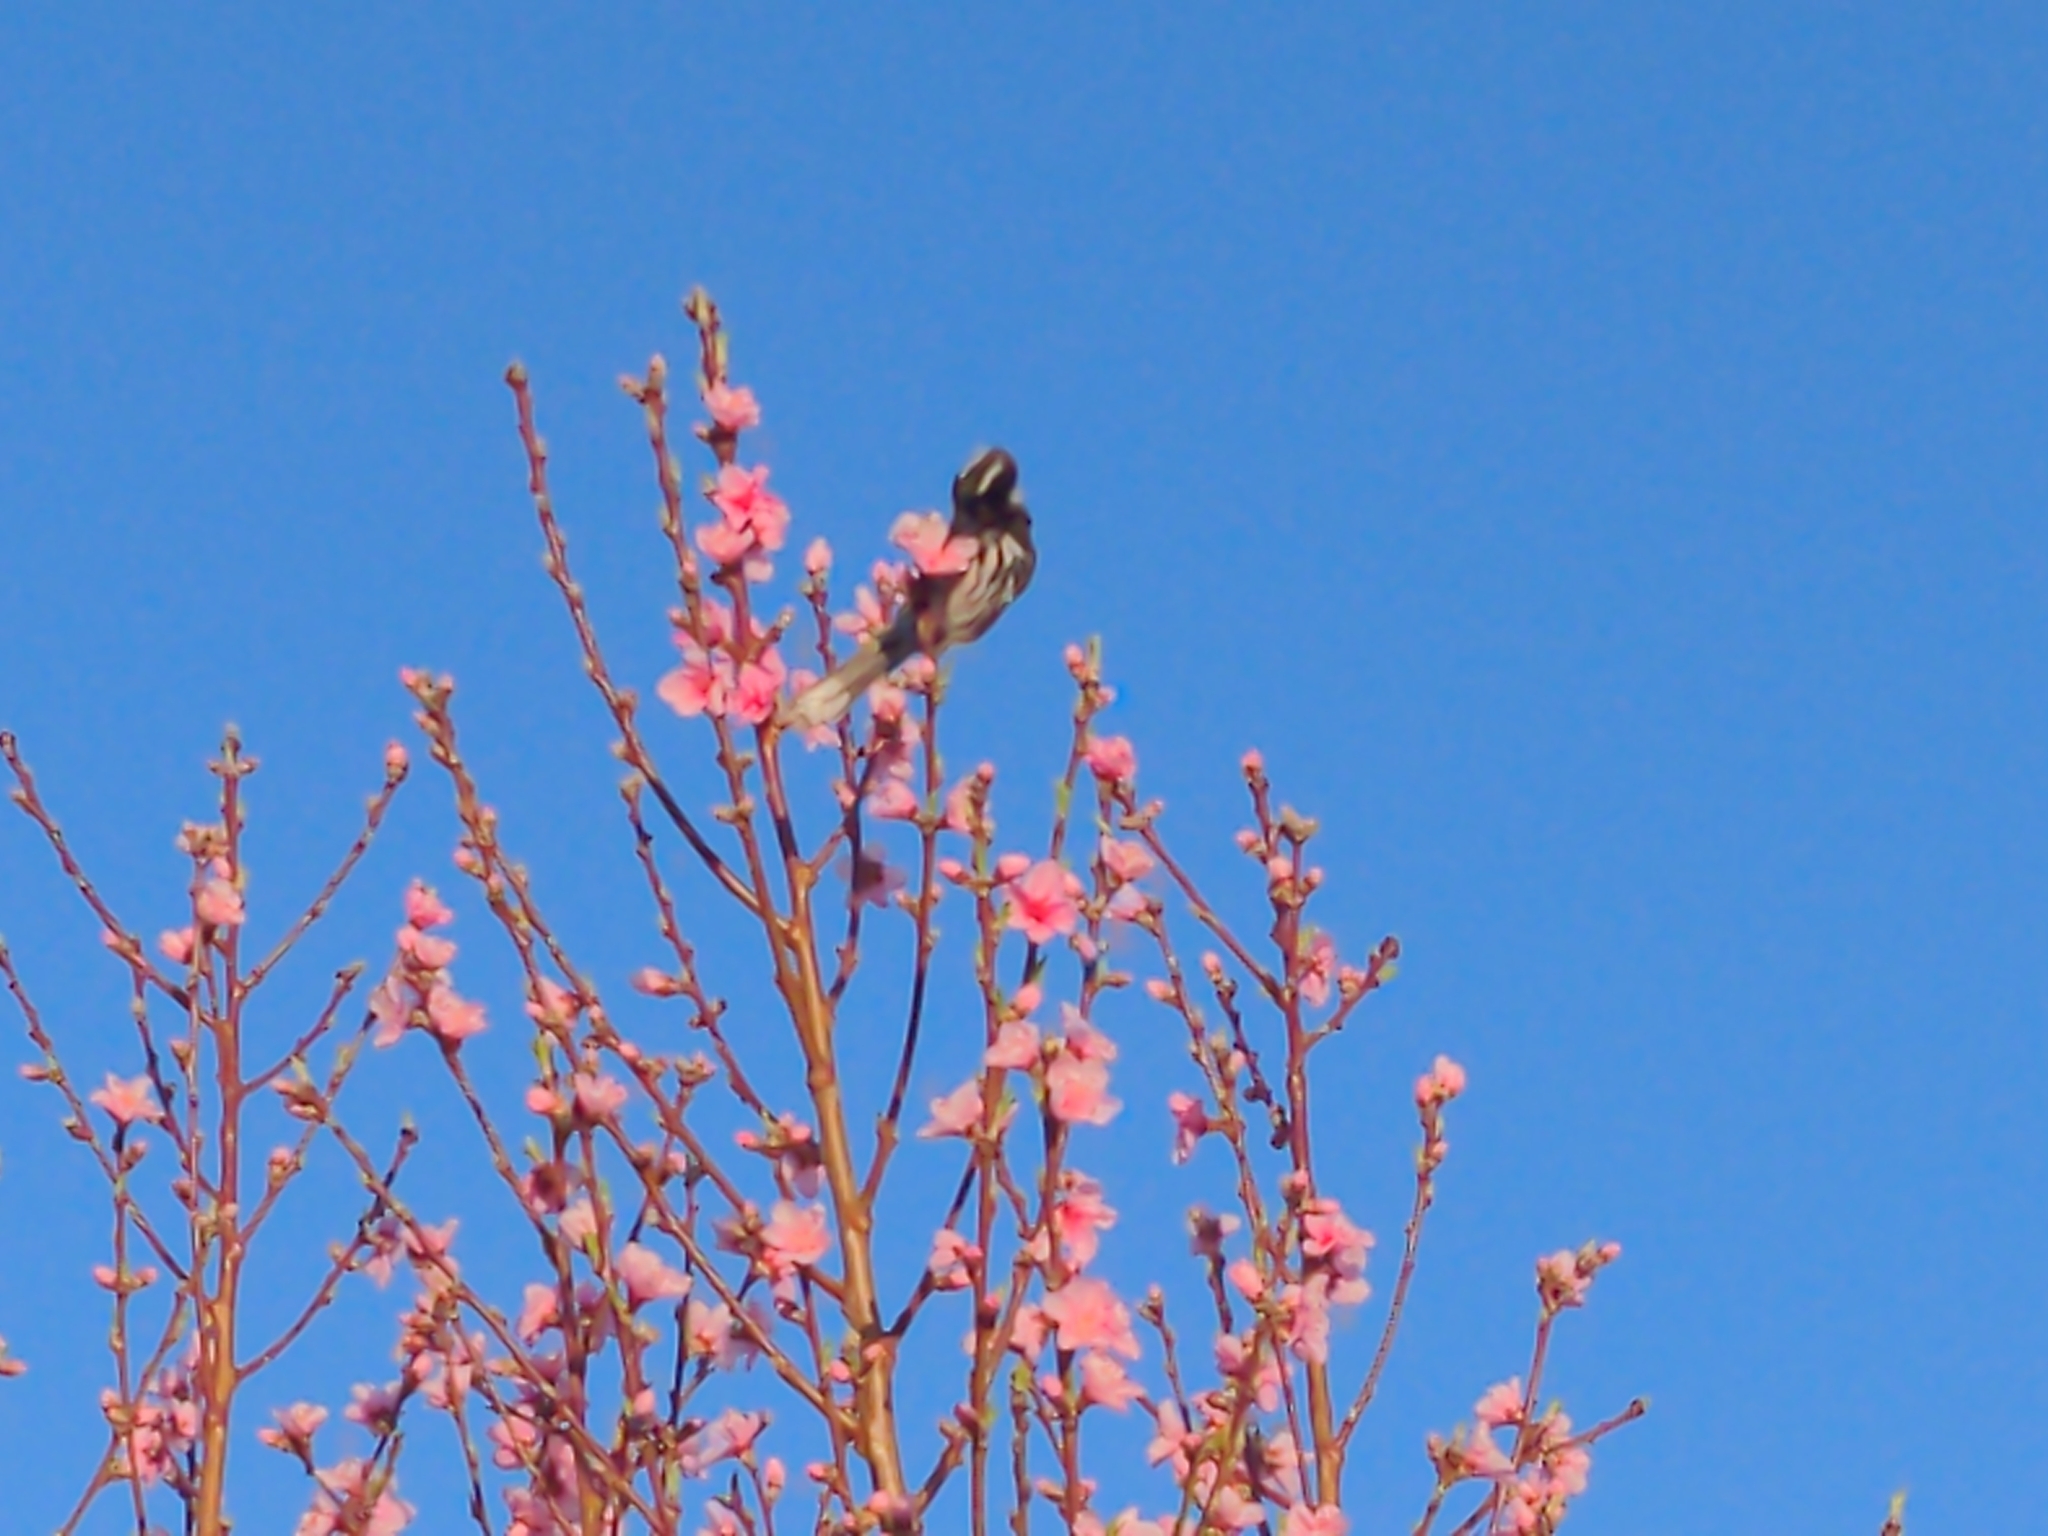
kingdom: Animalia
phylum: Chordata
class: Aves
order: Passeriformes
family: Meliphagidae
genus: Phylidonyris
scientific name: Phylidonyris novaehollandiae
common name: New holland honeyeater
